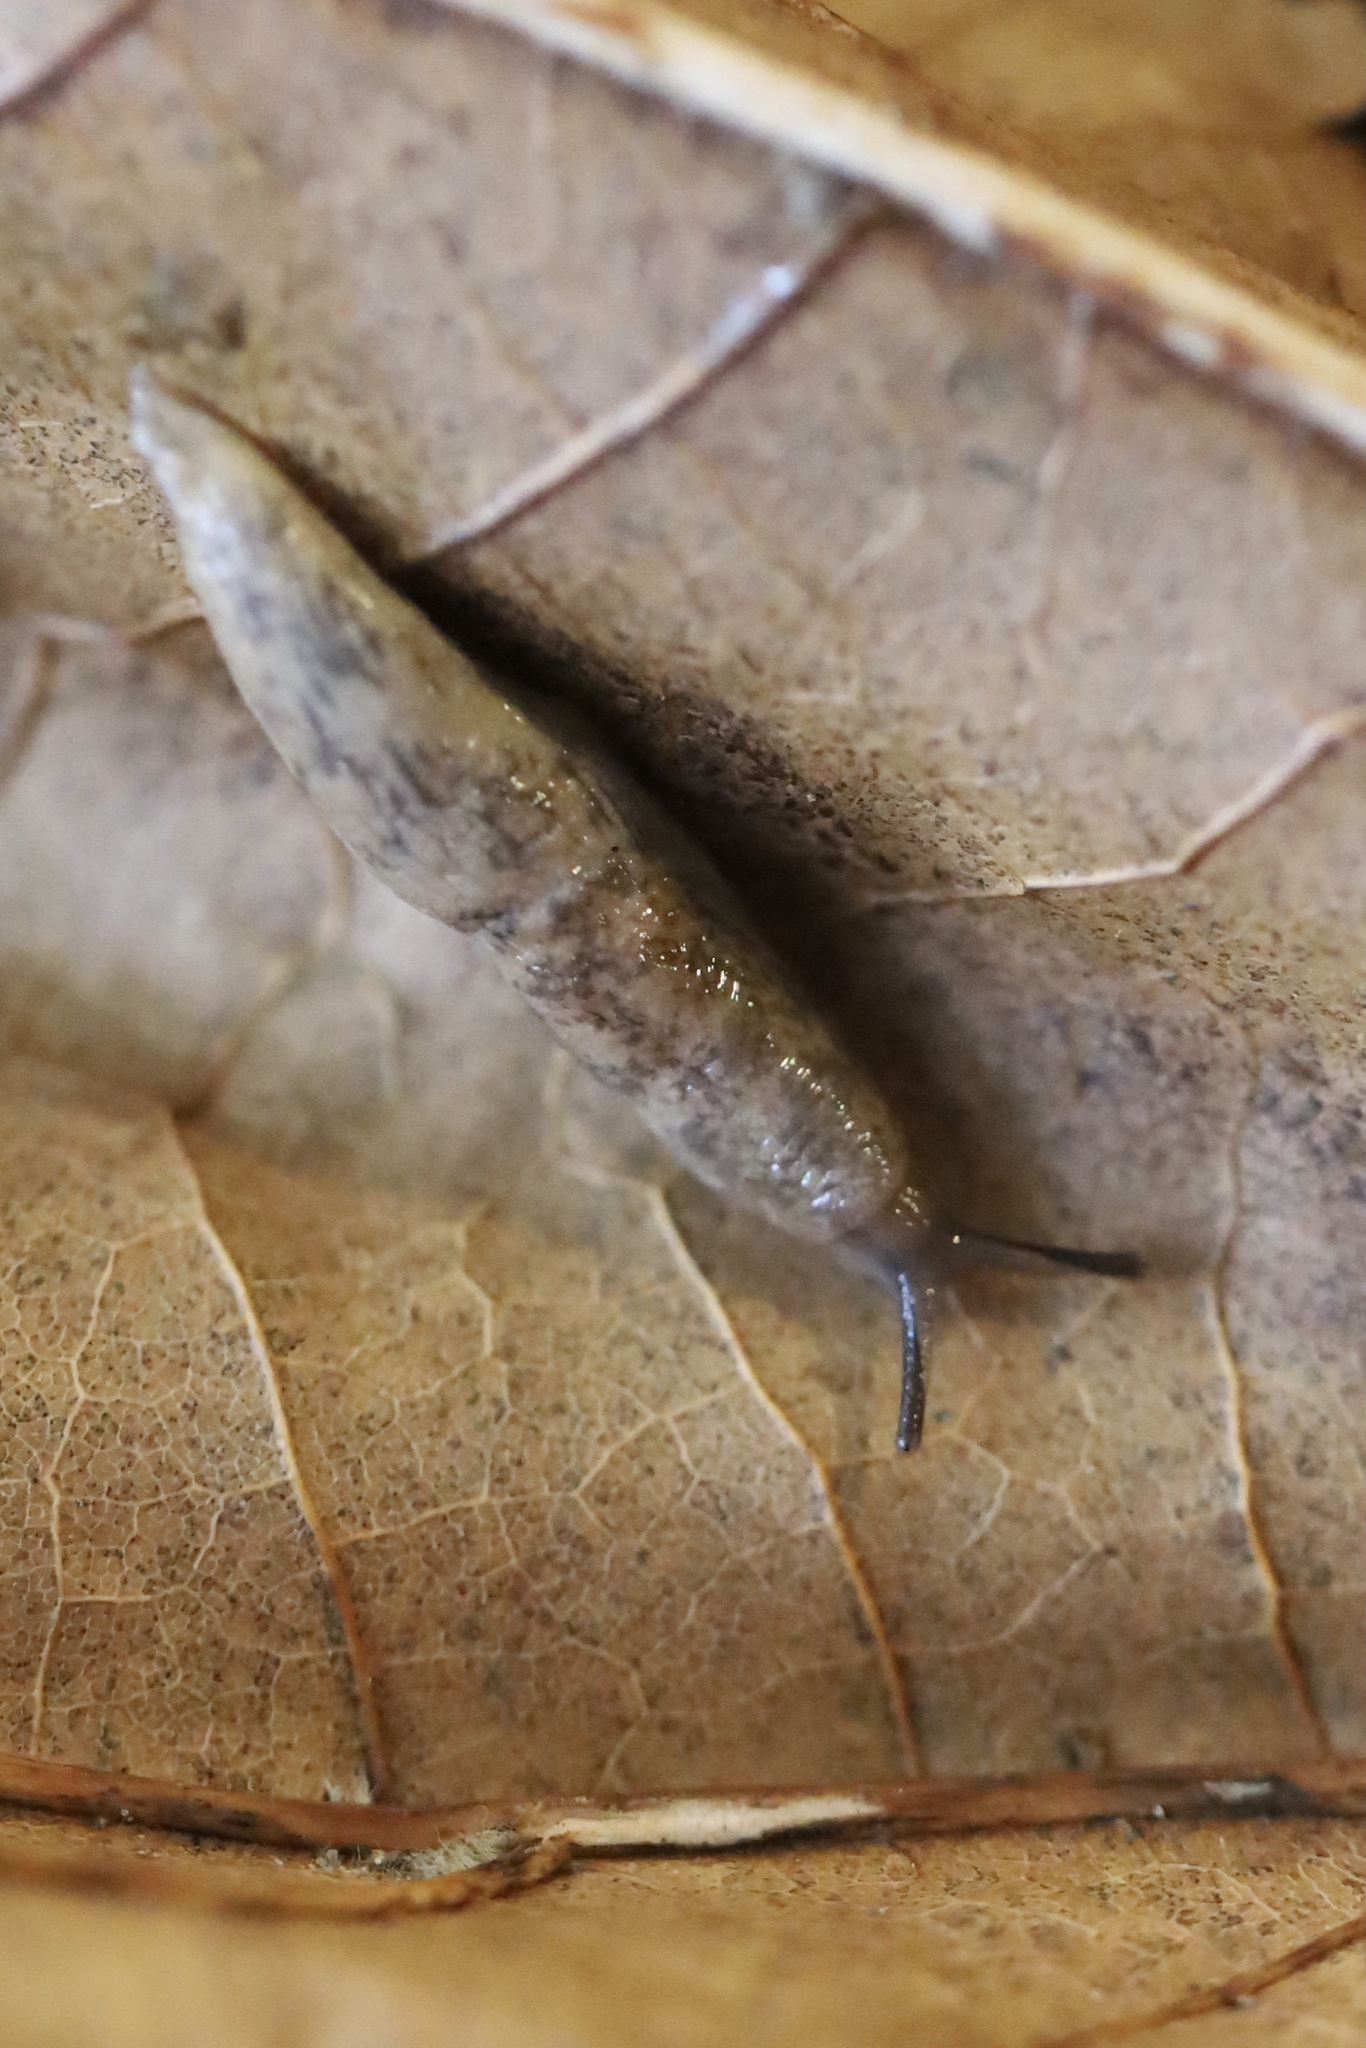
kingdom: Animalia
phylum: Mollusca
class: Gastropoda
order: Stylommatophora
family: Agriolimacidae
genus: Deroceras
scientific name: Deroceras reticulatum
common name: Gray field slug
